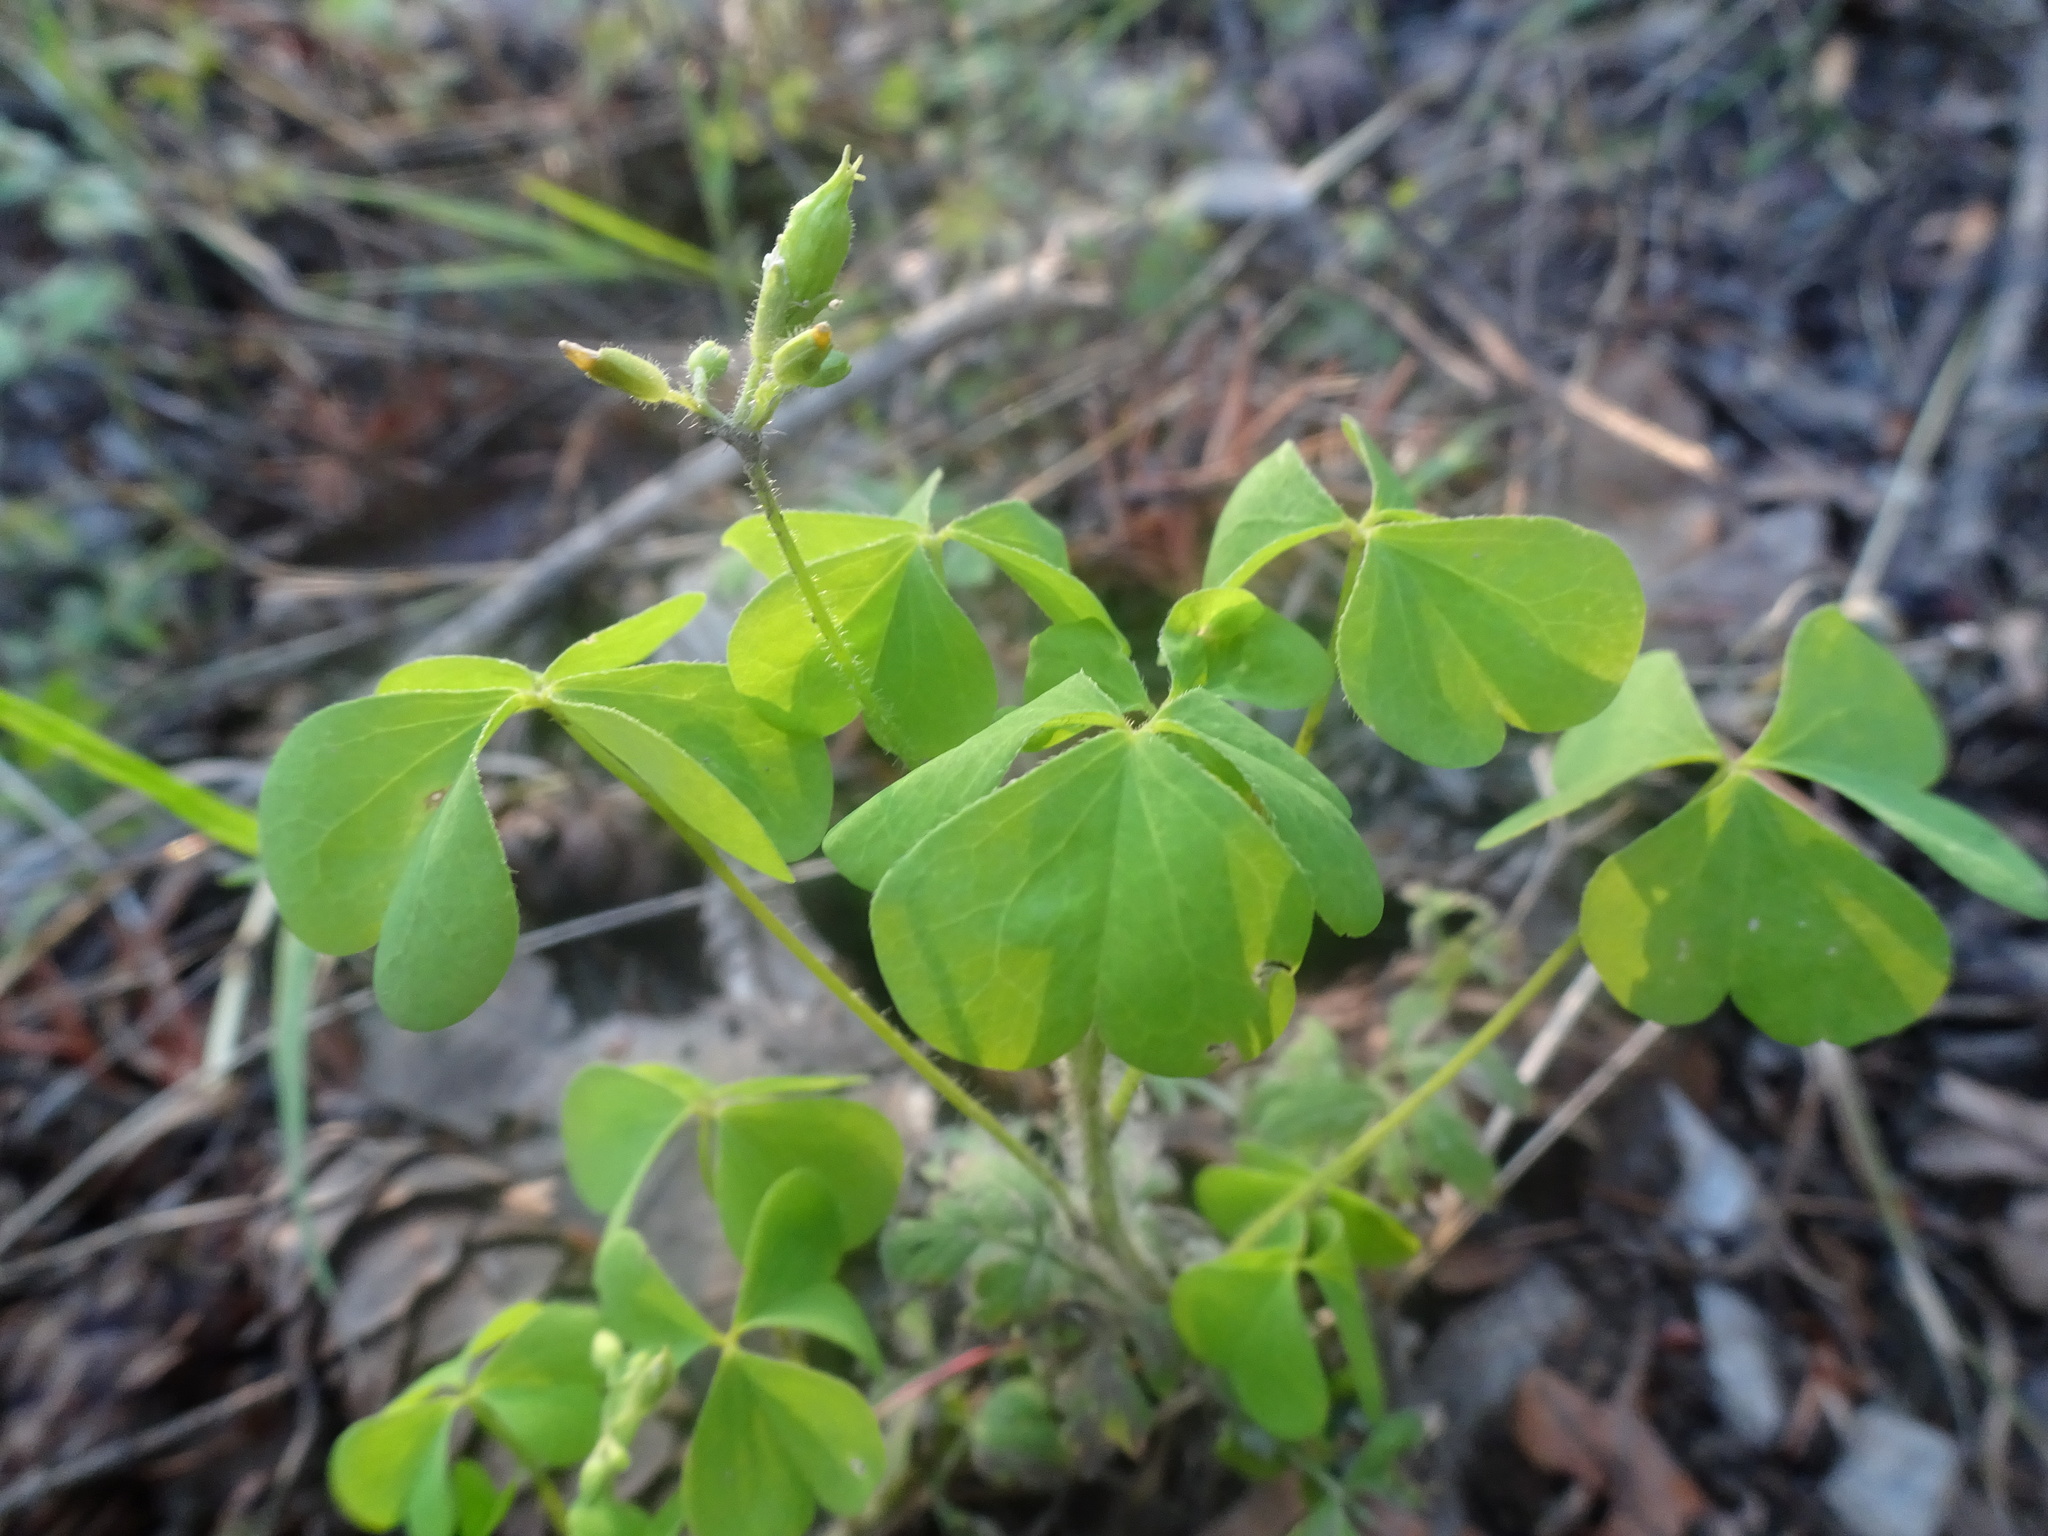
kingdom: Plantae
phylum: Tracheophyta
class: Magnoliopsida
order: Oxalidales
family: Oxalidaceae
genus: Oxalis
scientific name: Oxalis stricta
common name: Upright yellow-sorrel
